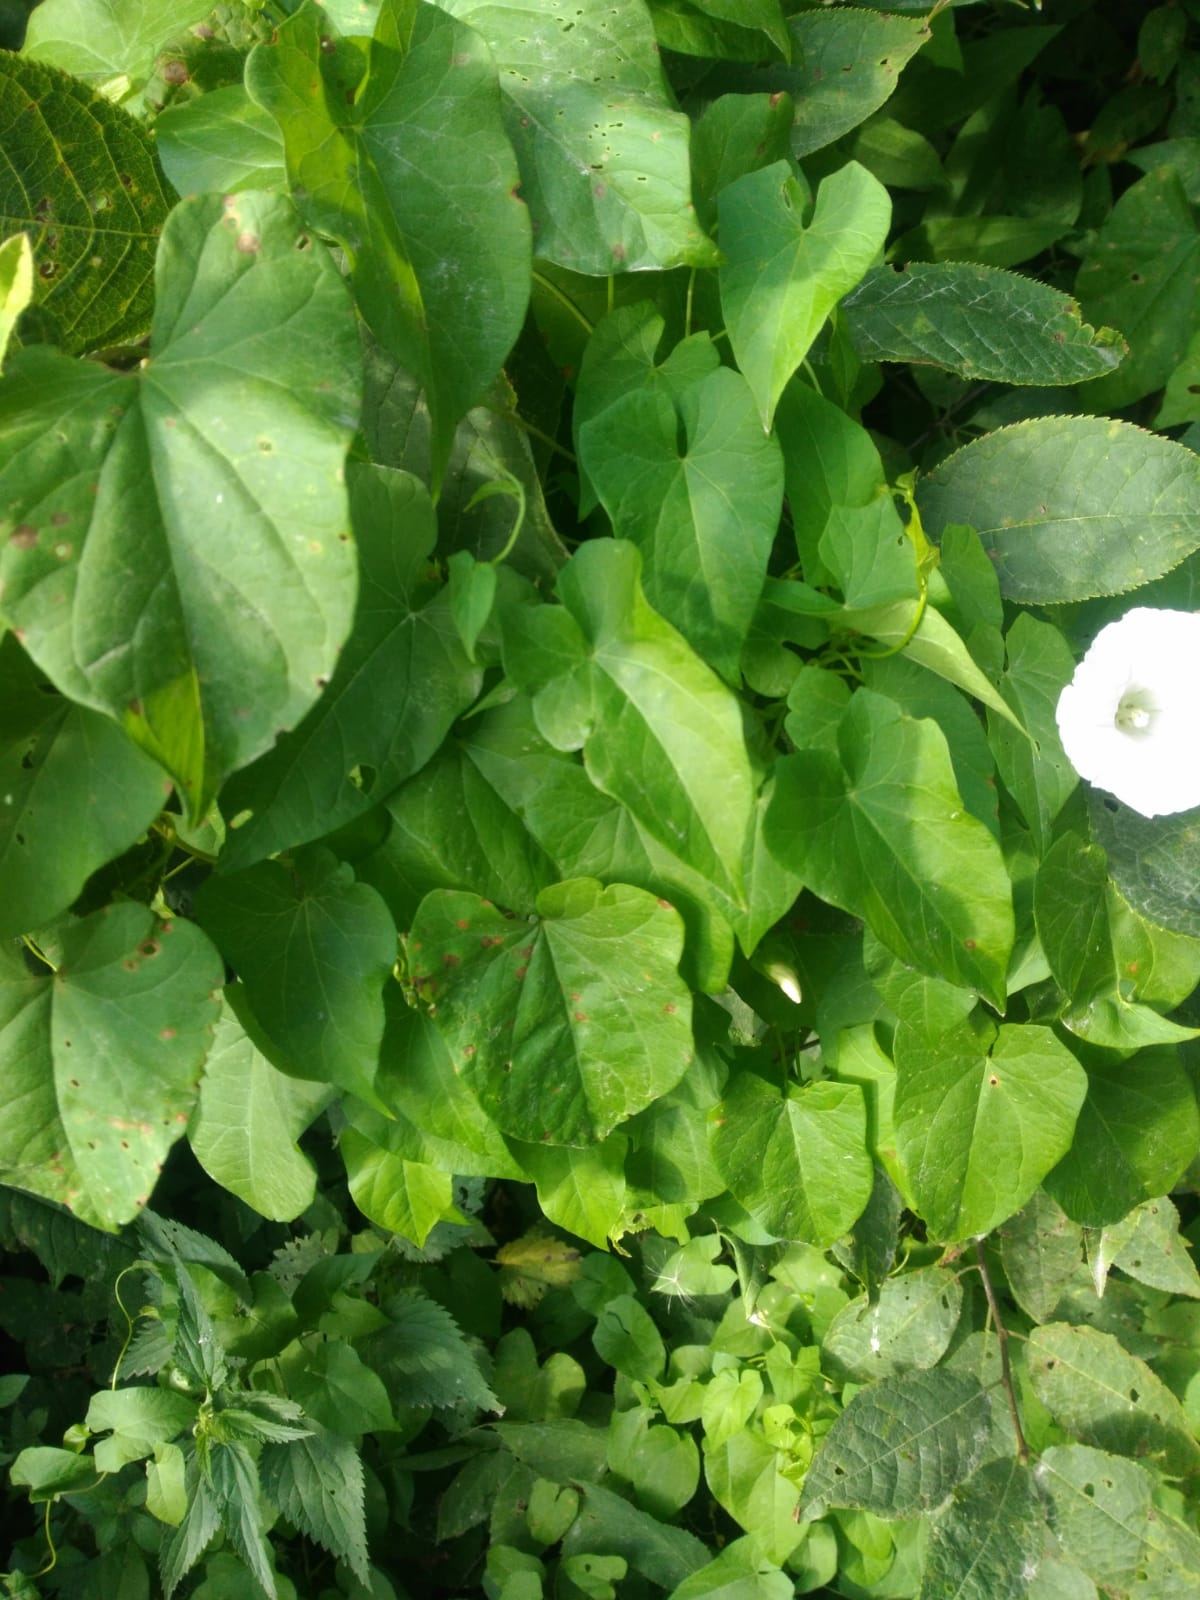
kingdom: Plantae
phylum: Tracheophyta
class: Magnoliopsida
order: Solanales
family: Convolvulaceae
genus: Calystegia
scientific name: Calystegia sepium
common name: Hedge bindweed
